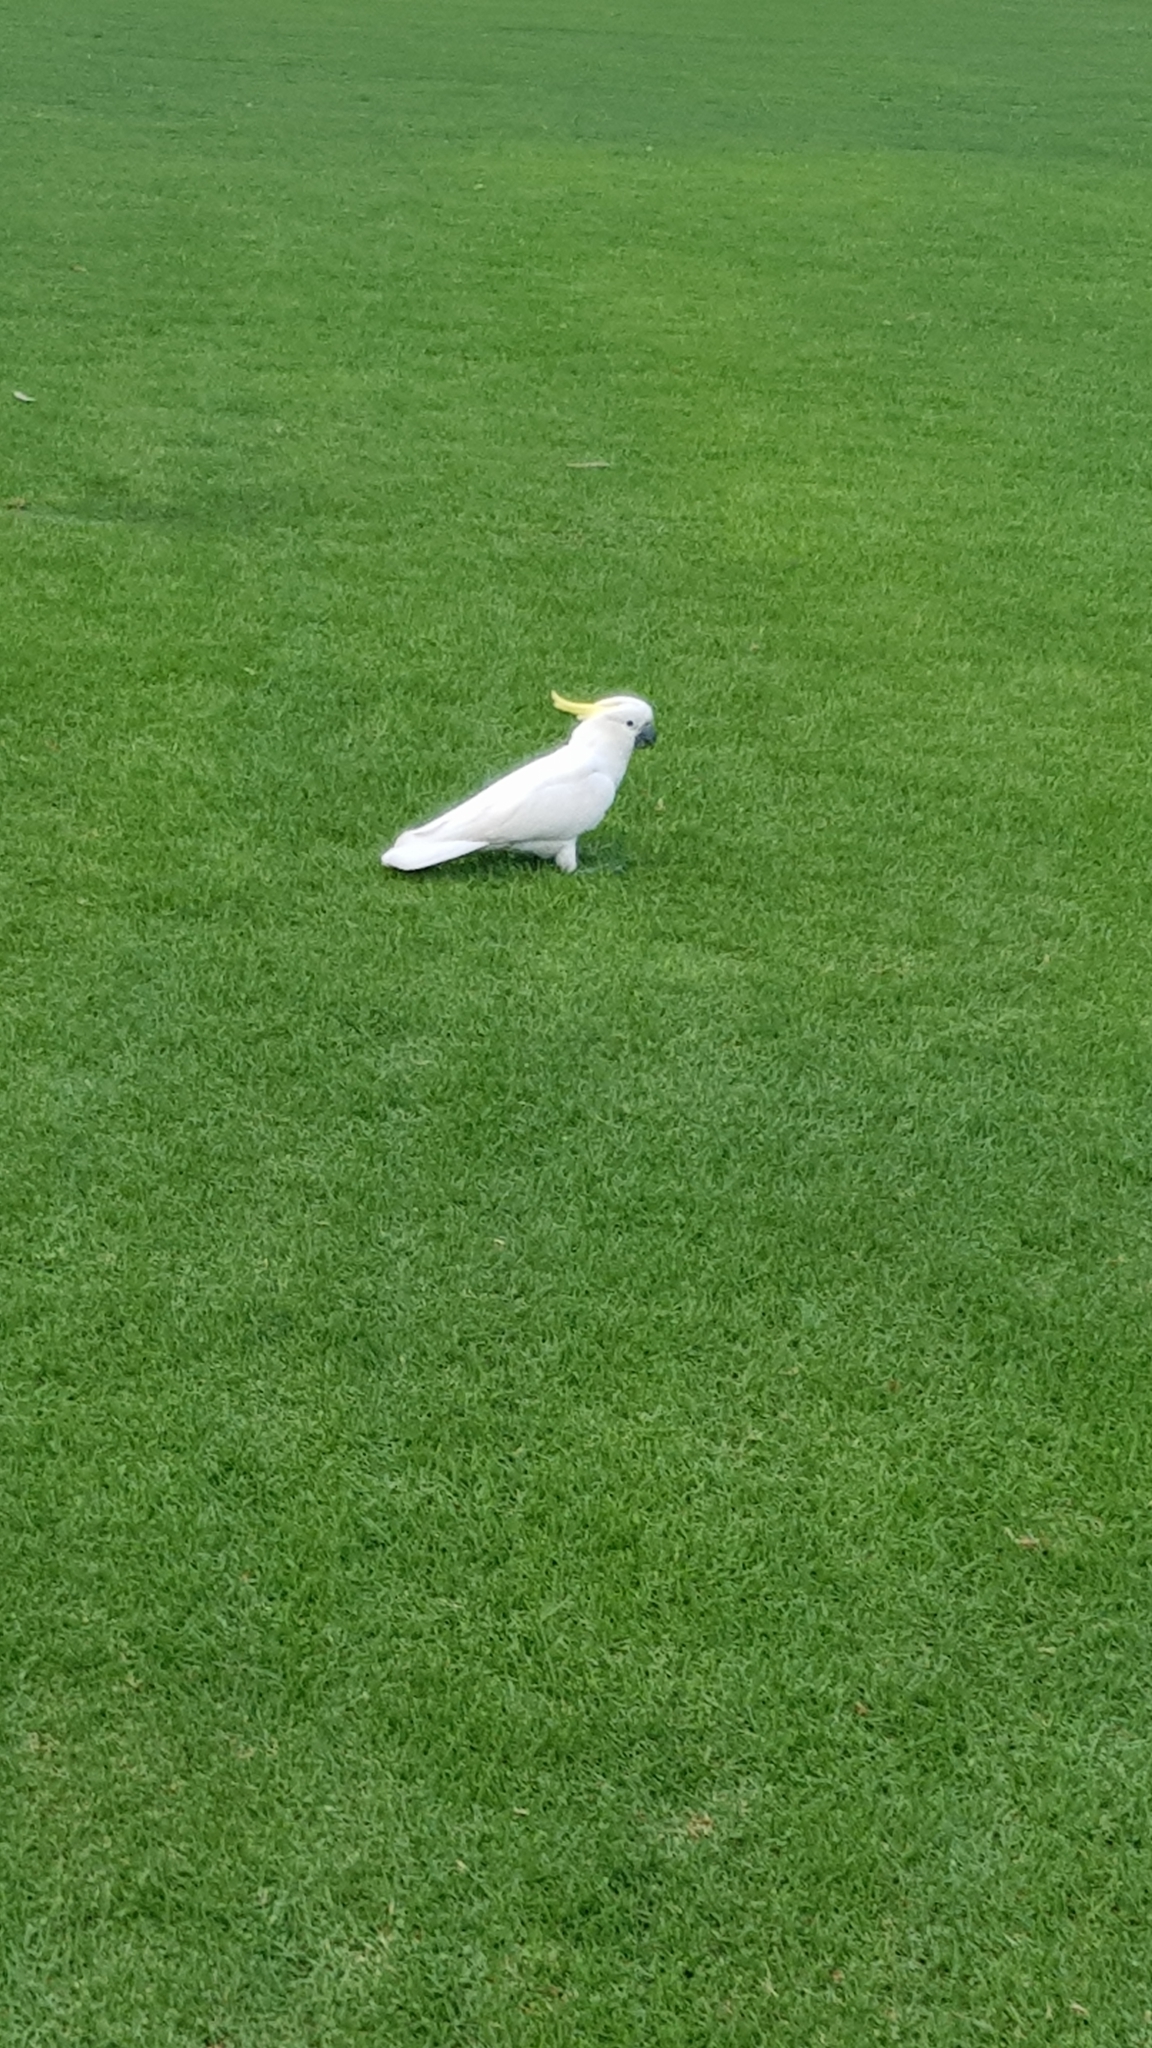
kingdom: Animalia
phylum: Chordata
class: Aves
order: Psittaciformes
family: Psittacidae
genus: Cacatua
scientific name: Cacatua galerita
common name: Sulphur-crested cockatoo
